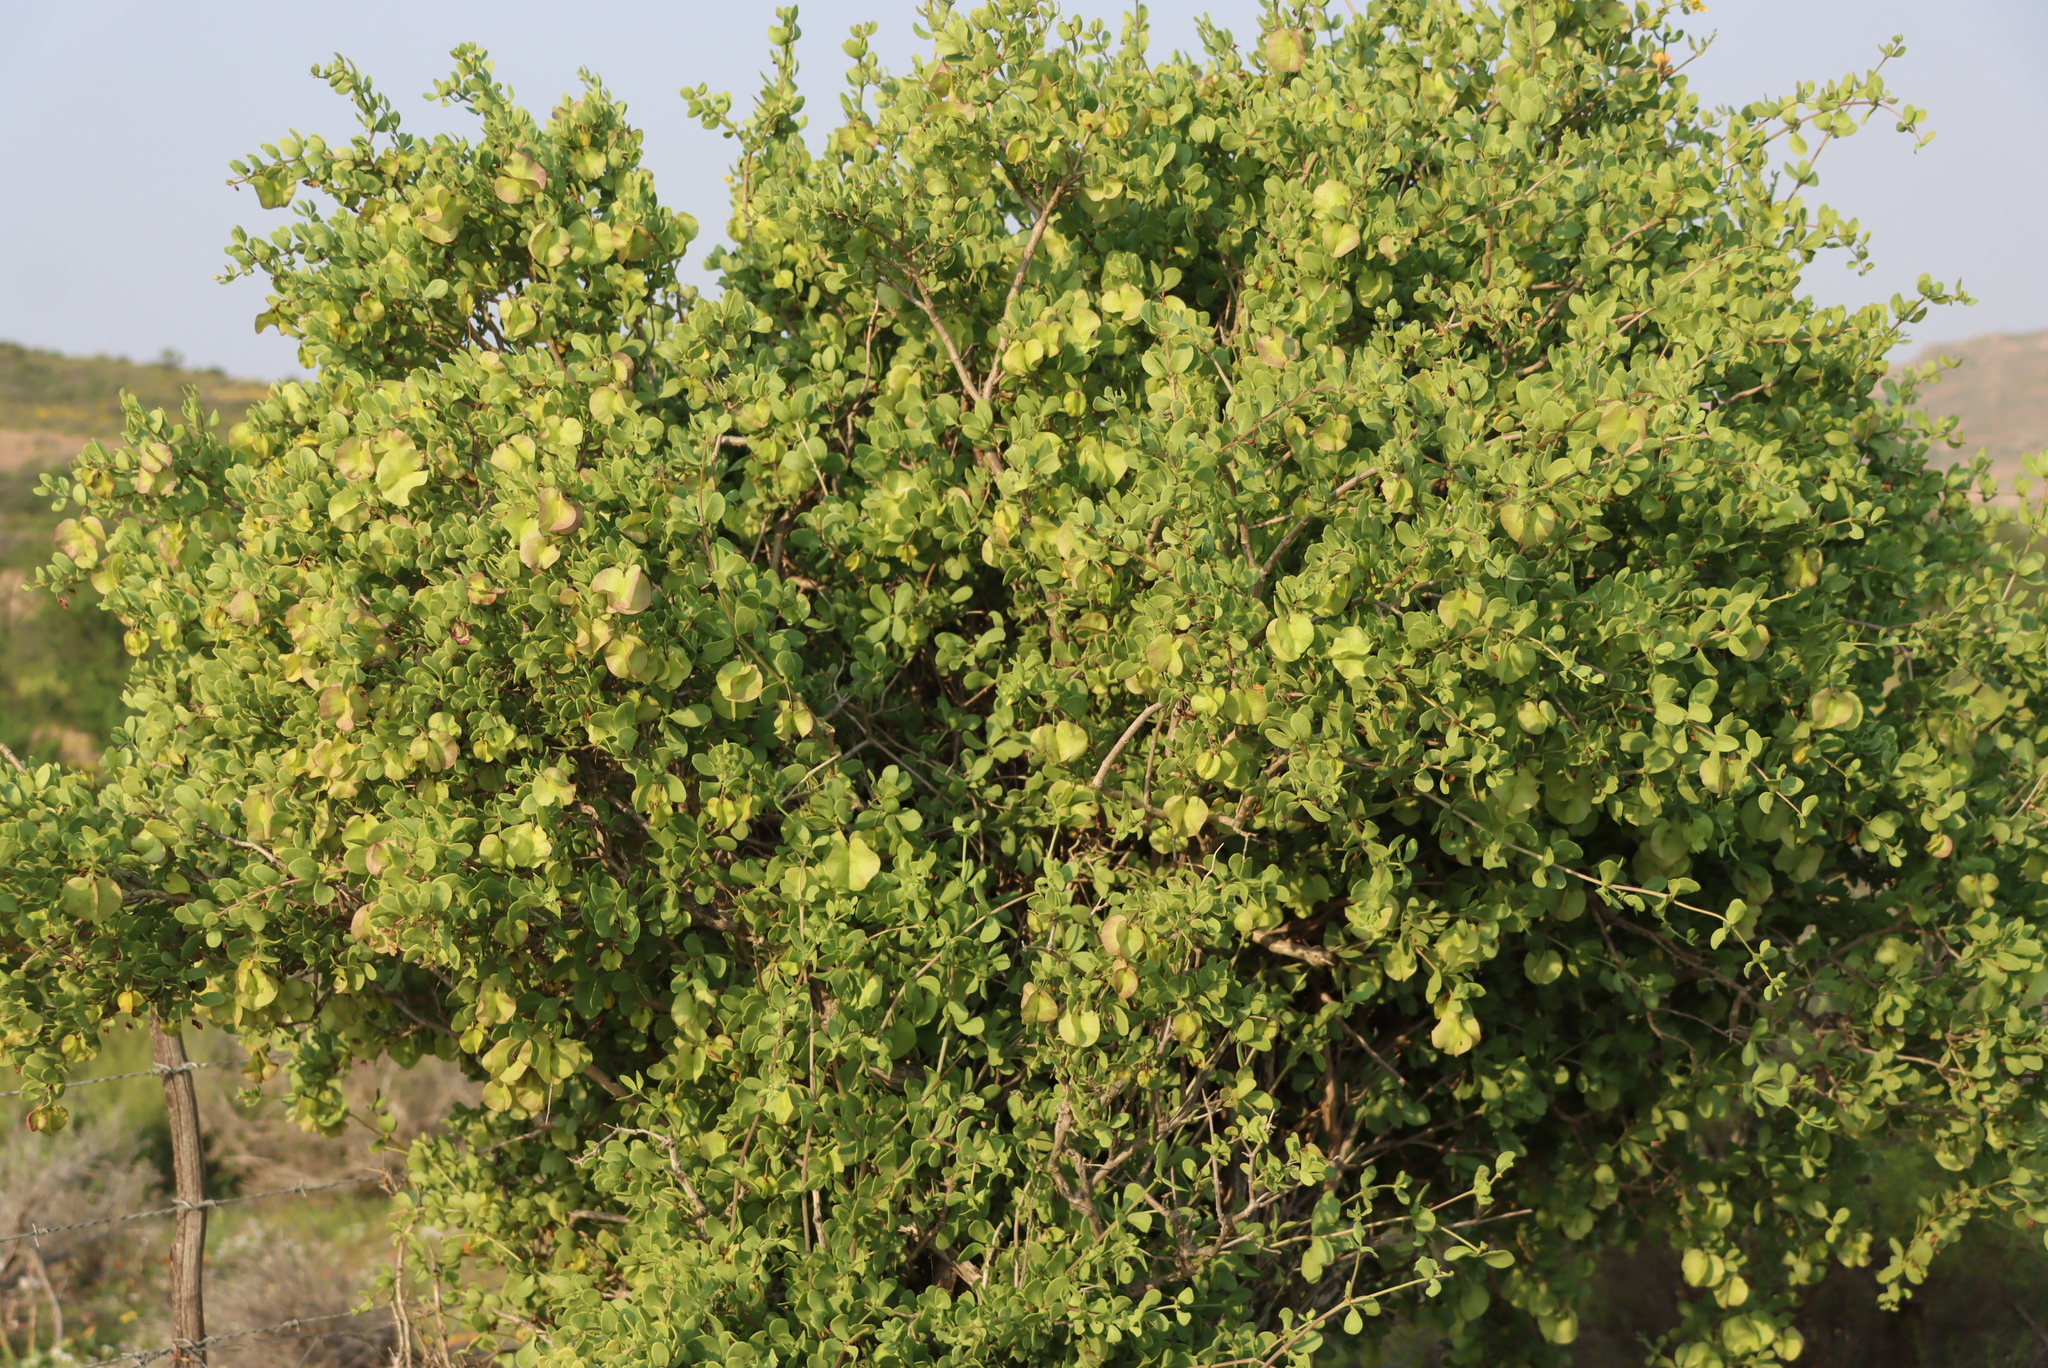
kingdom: Plantae
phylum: Tracheophyta
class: Magnoliopsida
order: Zygophyllales
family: Zygophyllaceae
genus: Roepera
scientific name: Roepera morgsana
